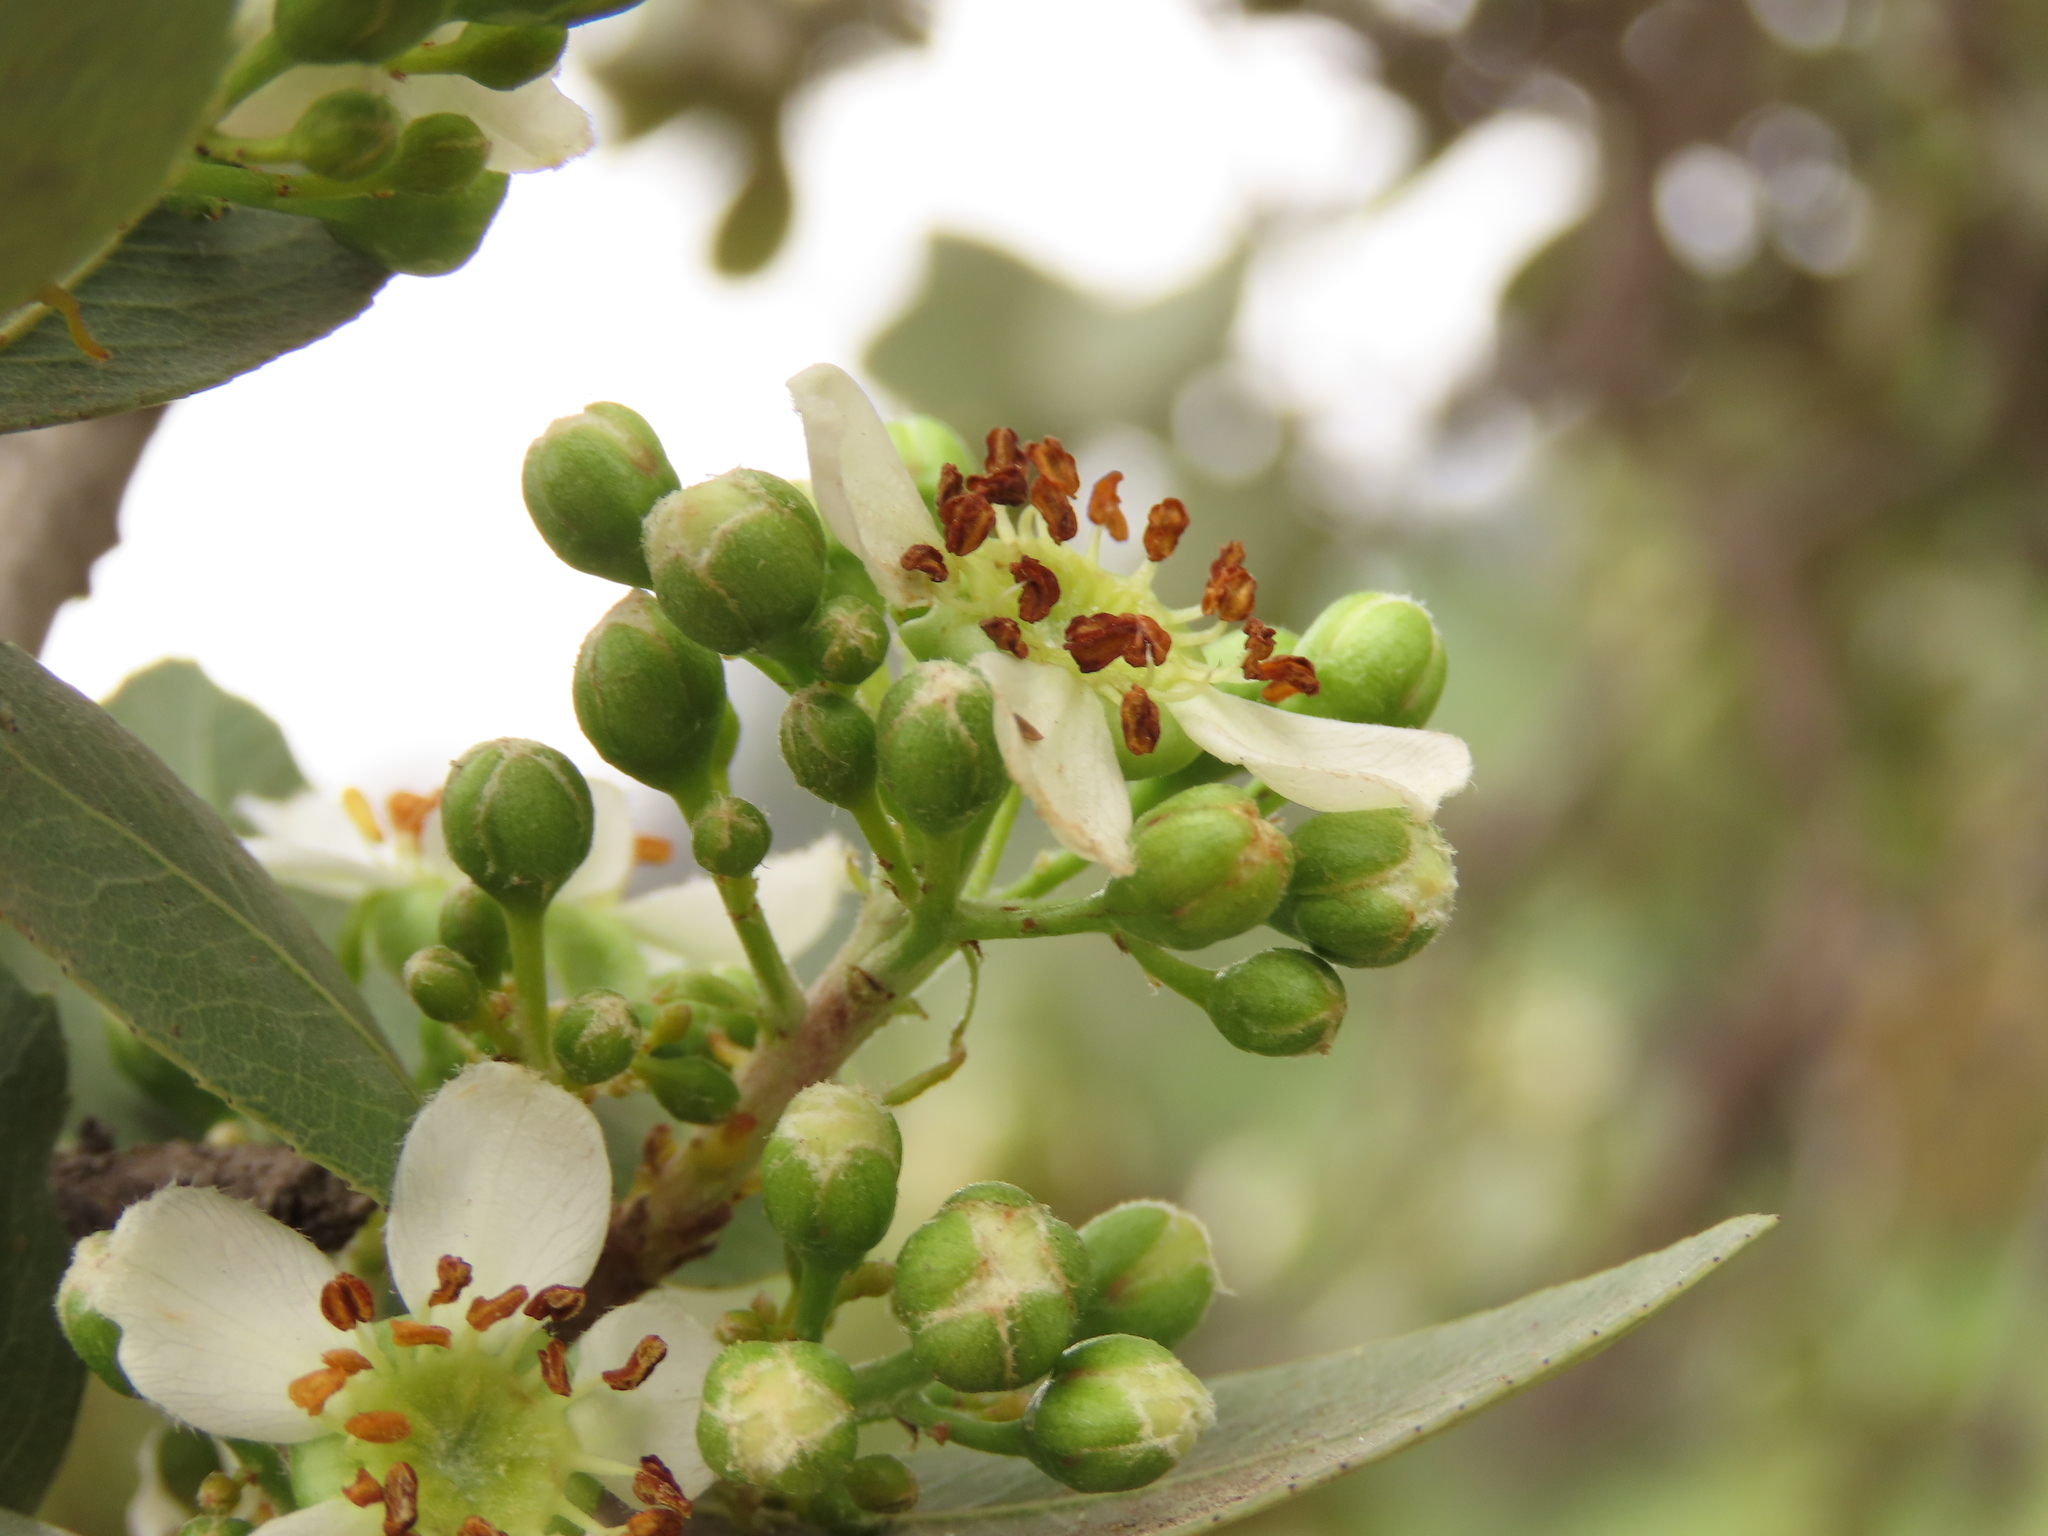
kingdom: Plantae
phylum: Tracheophyta
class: Magnoliopsida
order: Rosales
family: Rosaceae
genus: Kageneckia
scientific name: Kageneckia oblonga
